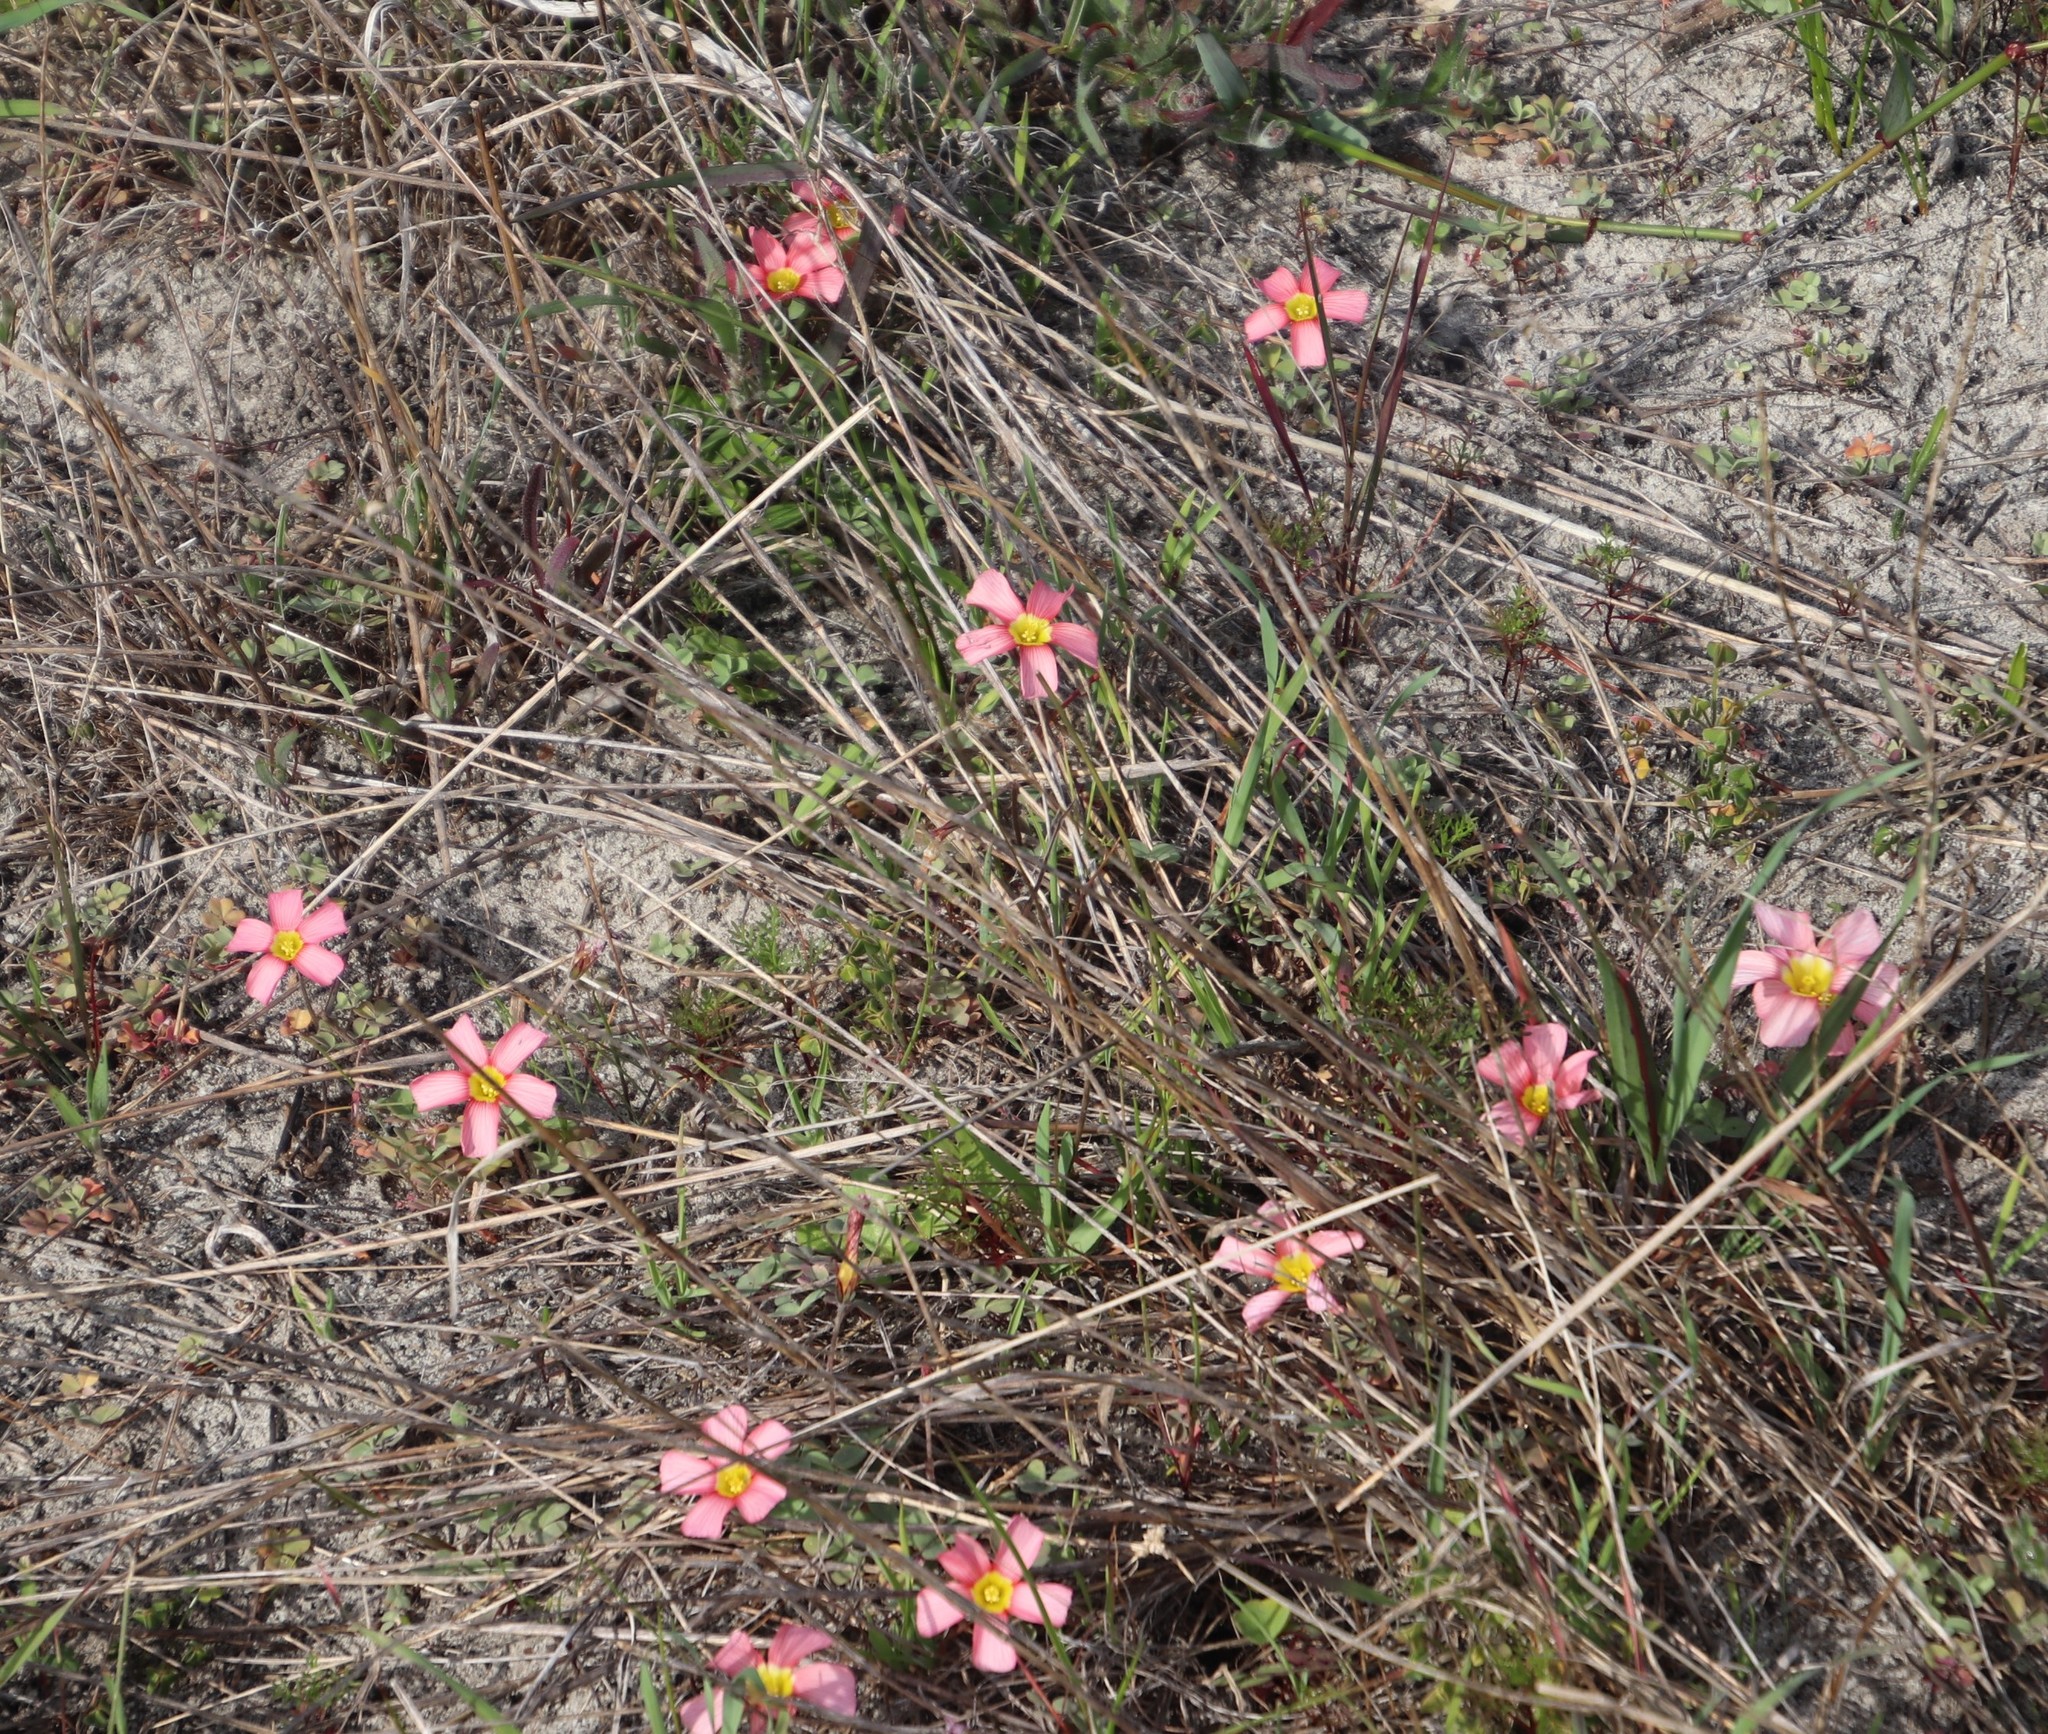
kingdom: Plantae
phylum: Tracheophyta
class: Magnoliopsida
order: Oxalidales
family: Oxalidaceae
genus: Oxalis
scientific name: Oxalis obtusa
